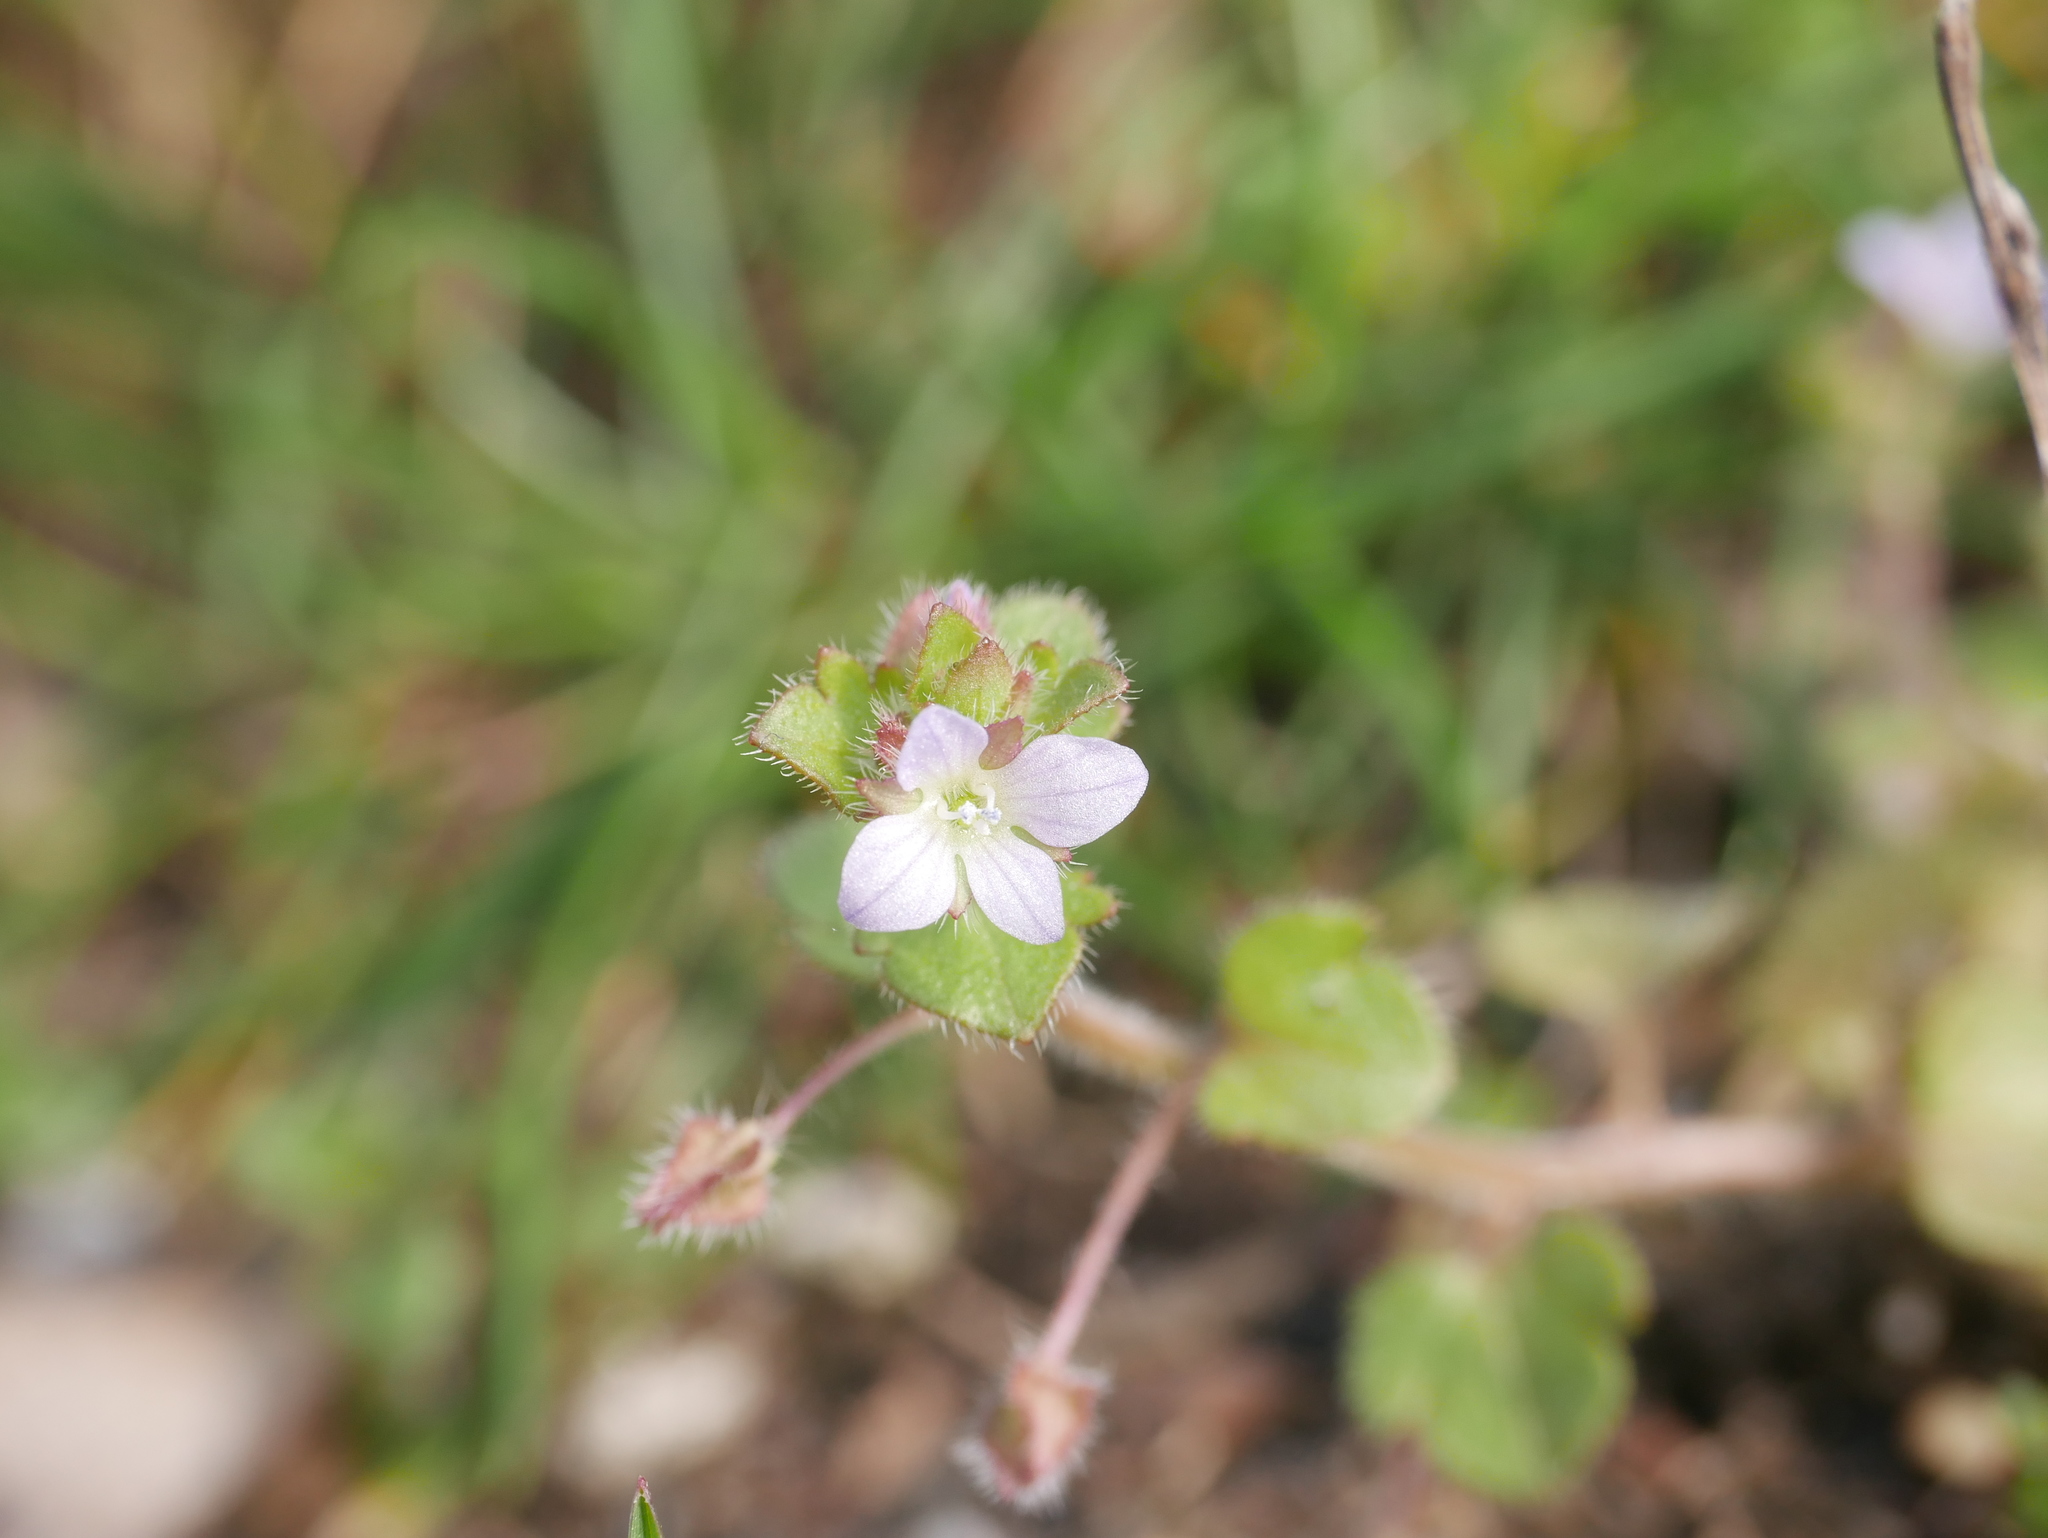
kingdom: Plantae
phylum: Tracheophyta
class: Magnoliopsida
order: Lamiales
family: Plantaginaceae
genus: Veronica
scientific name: Veronica sublobata
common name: False ivy-leaved speedwell
